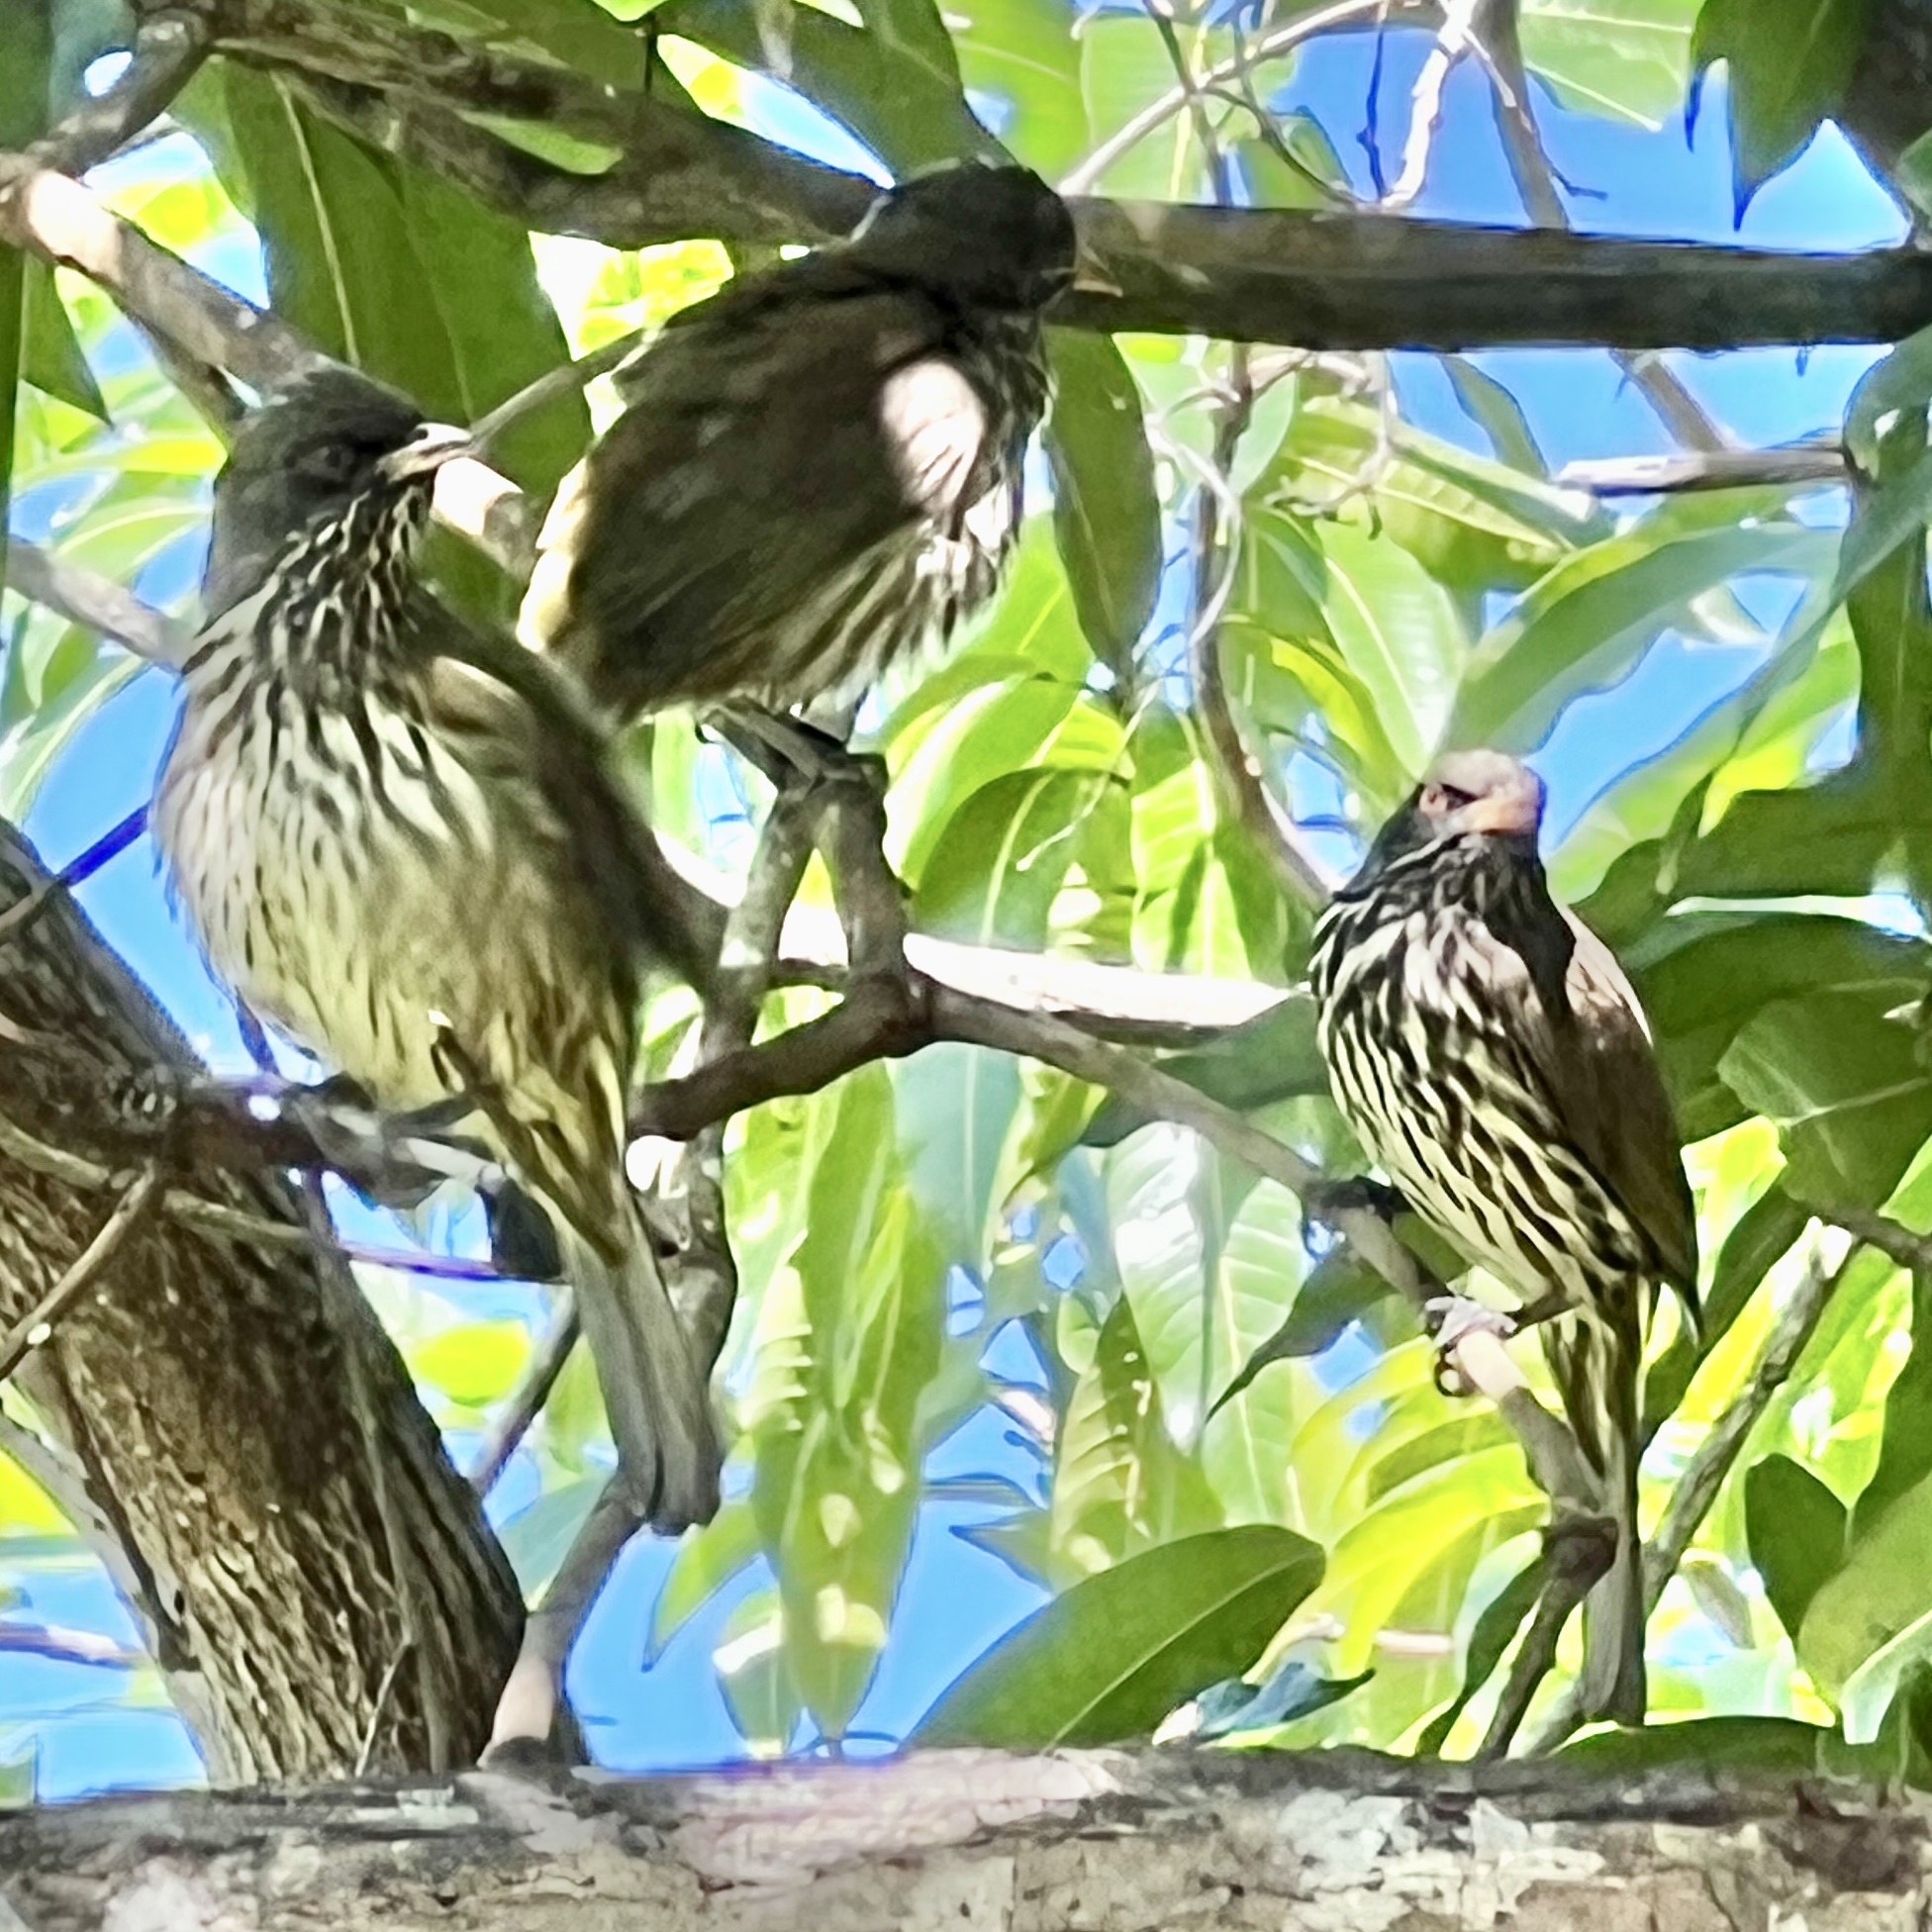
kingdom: Animalia
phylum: Chordata
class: Aves
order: Passeriformes
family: Dulidae
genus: Dulus
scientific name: Dulus dominicus
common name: Palmchat
